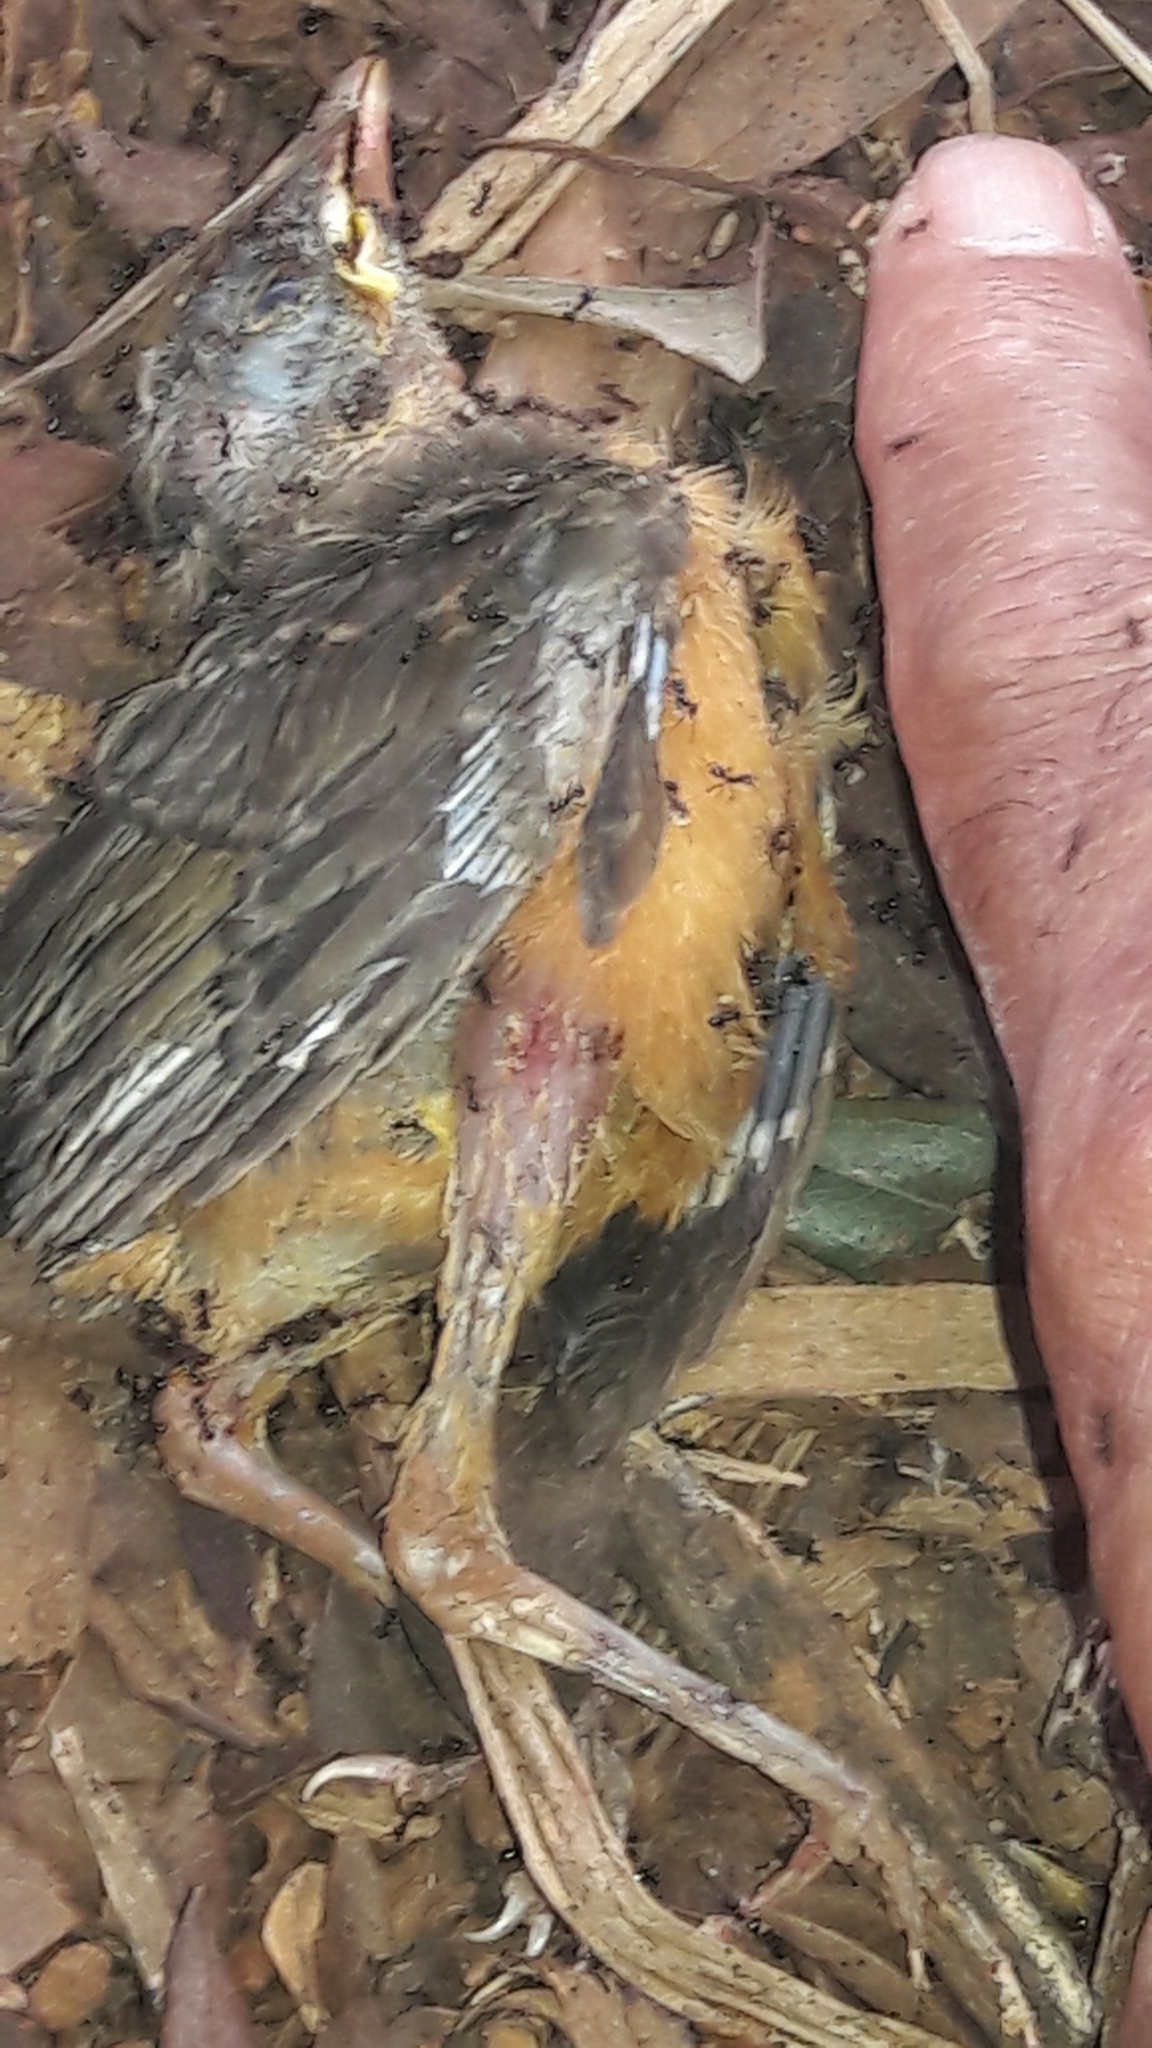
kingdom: Animalia
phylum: Chordata
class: Aves
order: Passeriformes
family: Turdidae
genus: Turdus
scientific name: Turdus rufiventris
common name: Rufous-bellied thrush
